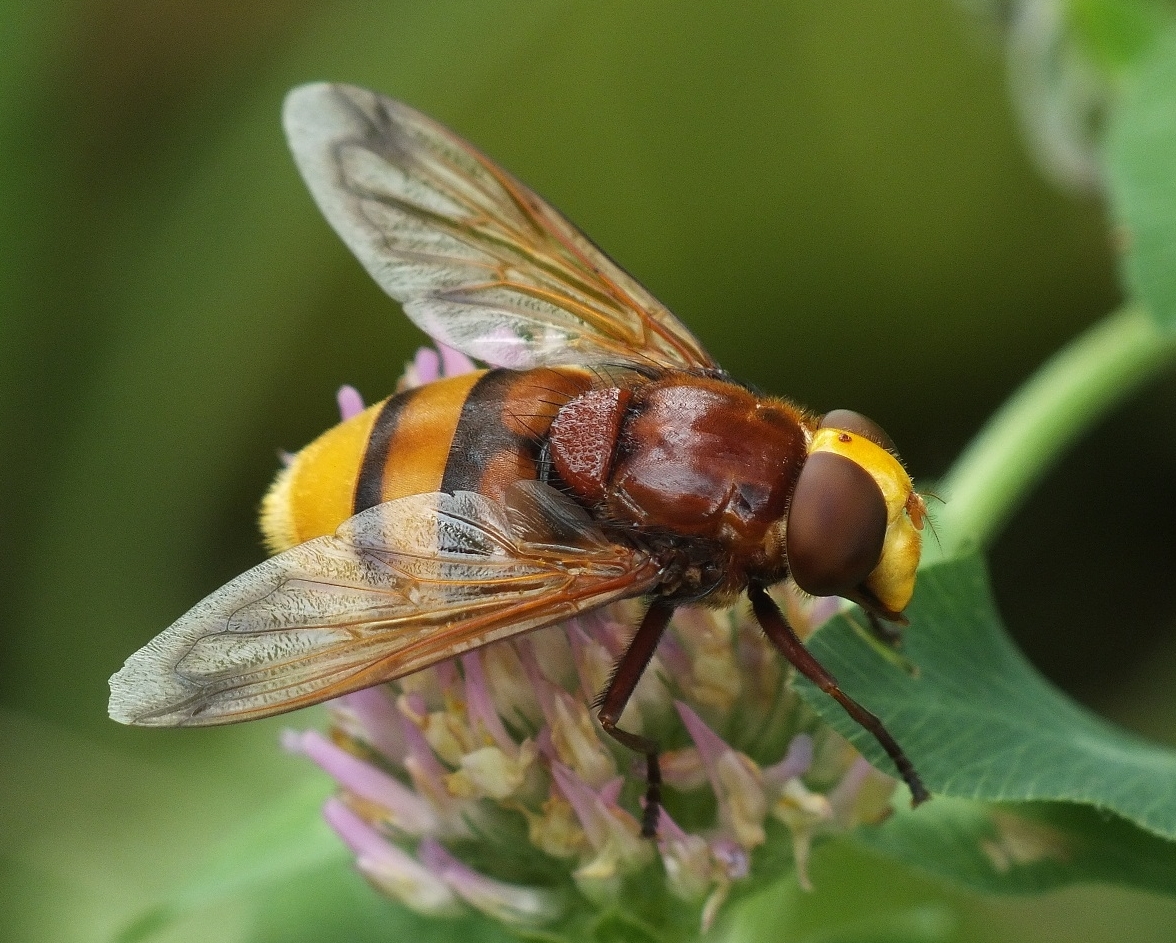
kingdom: Animalia
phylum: Arthropoda
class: Insecta
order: Diptera
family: Syrphidae
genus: Volucella
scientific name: Volucella zonaria
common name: Hornet hoverfly
